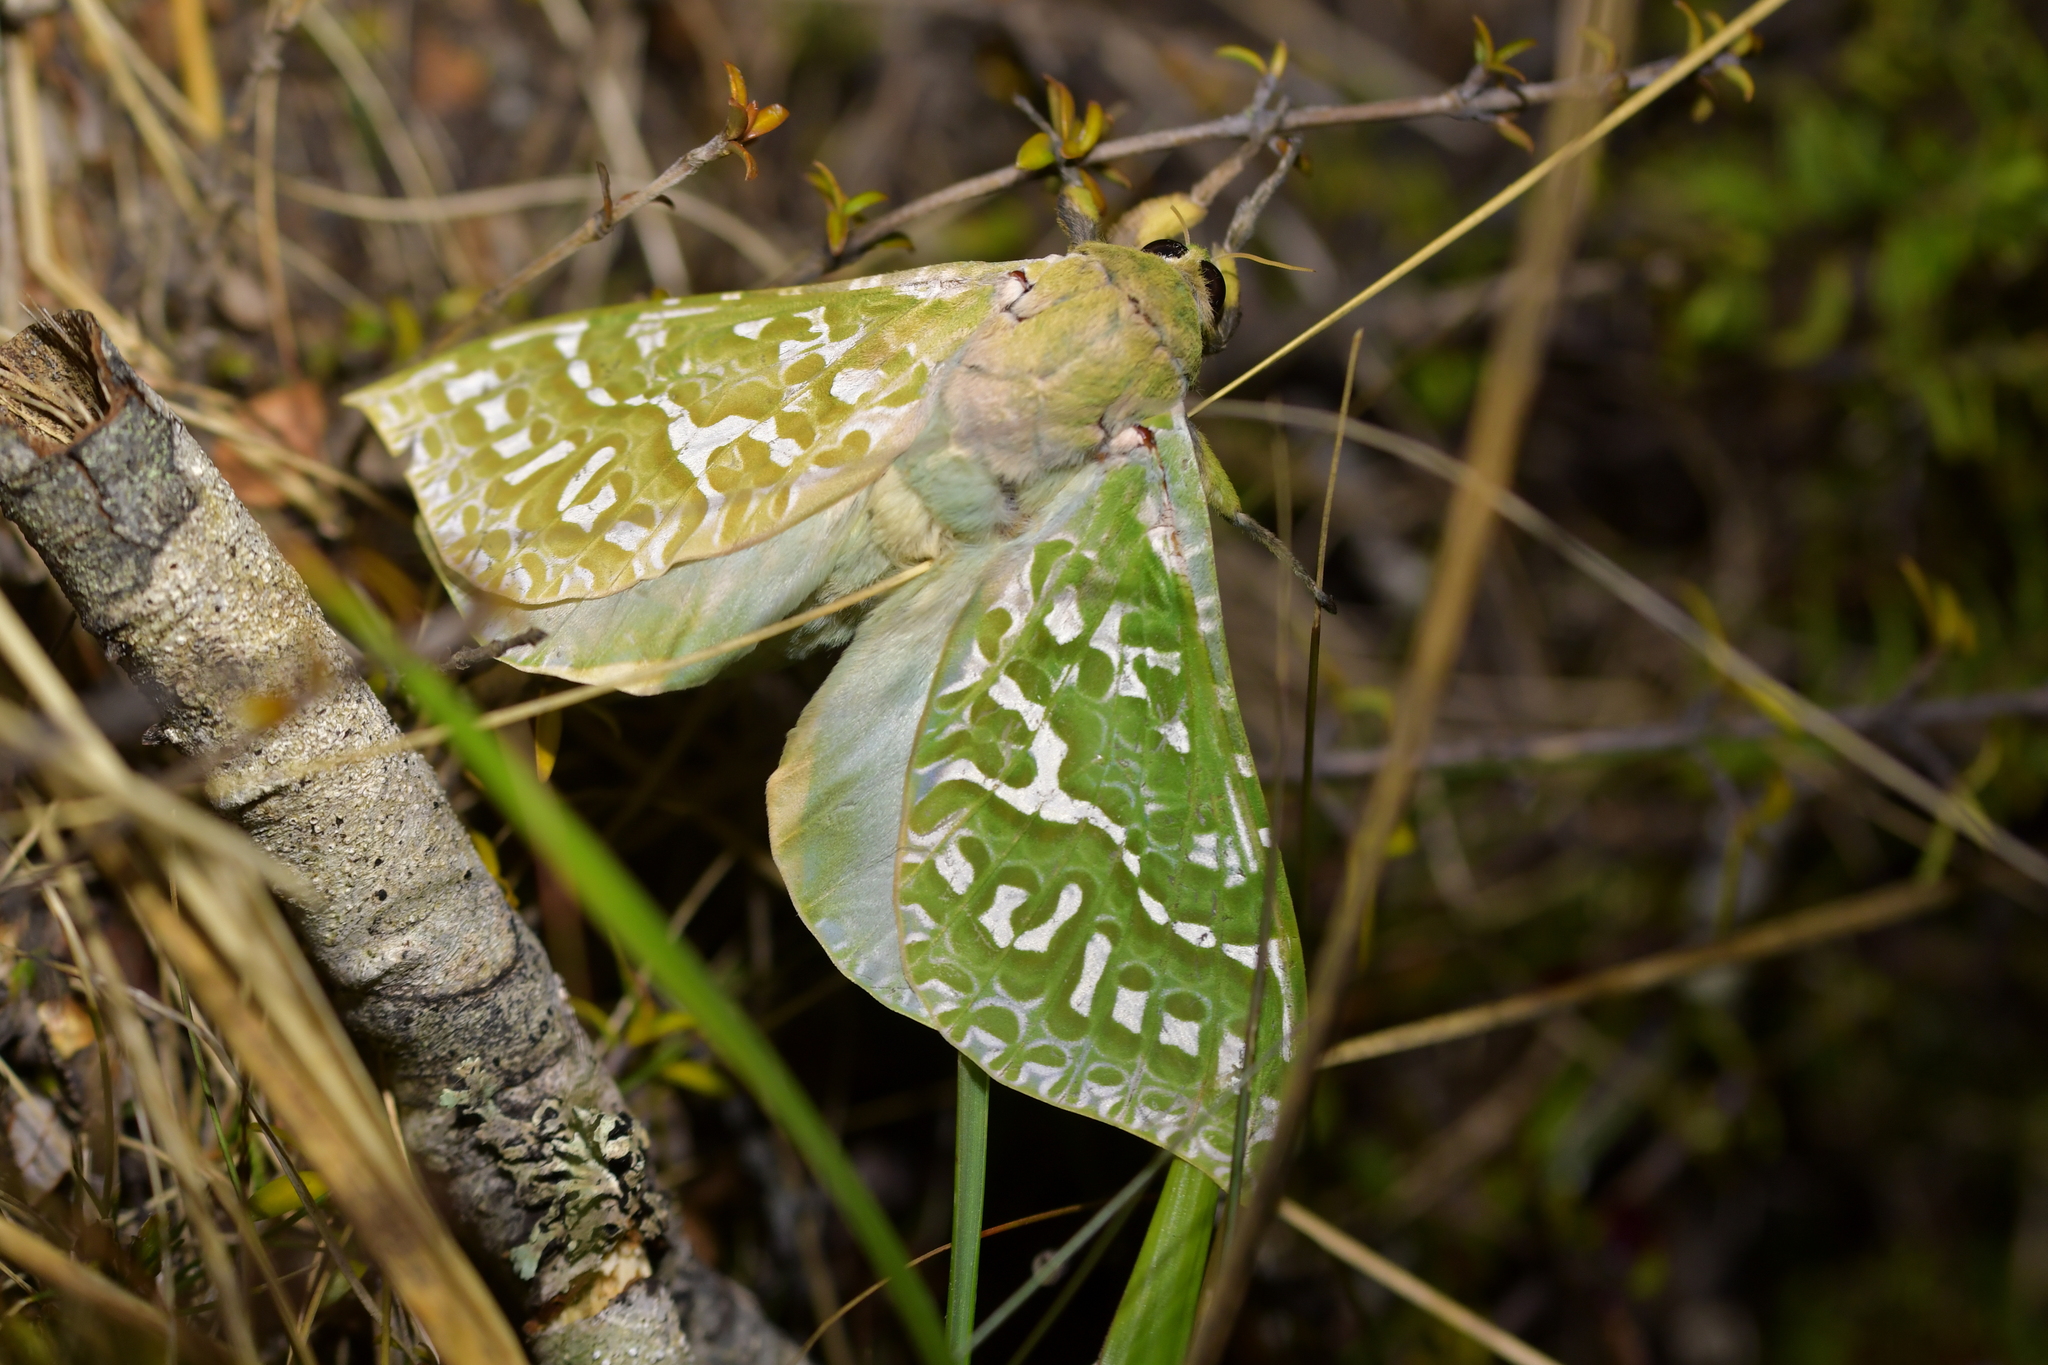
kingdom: Animalia
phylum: Arthropoda
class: Insecta
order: Lepidoptera
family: Hepialidae
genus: Aenetus
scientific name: Aenetus virescens
